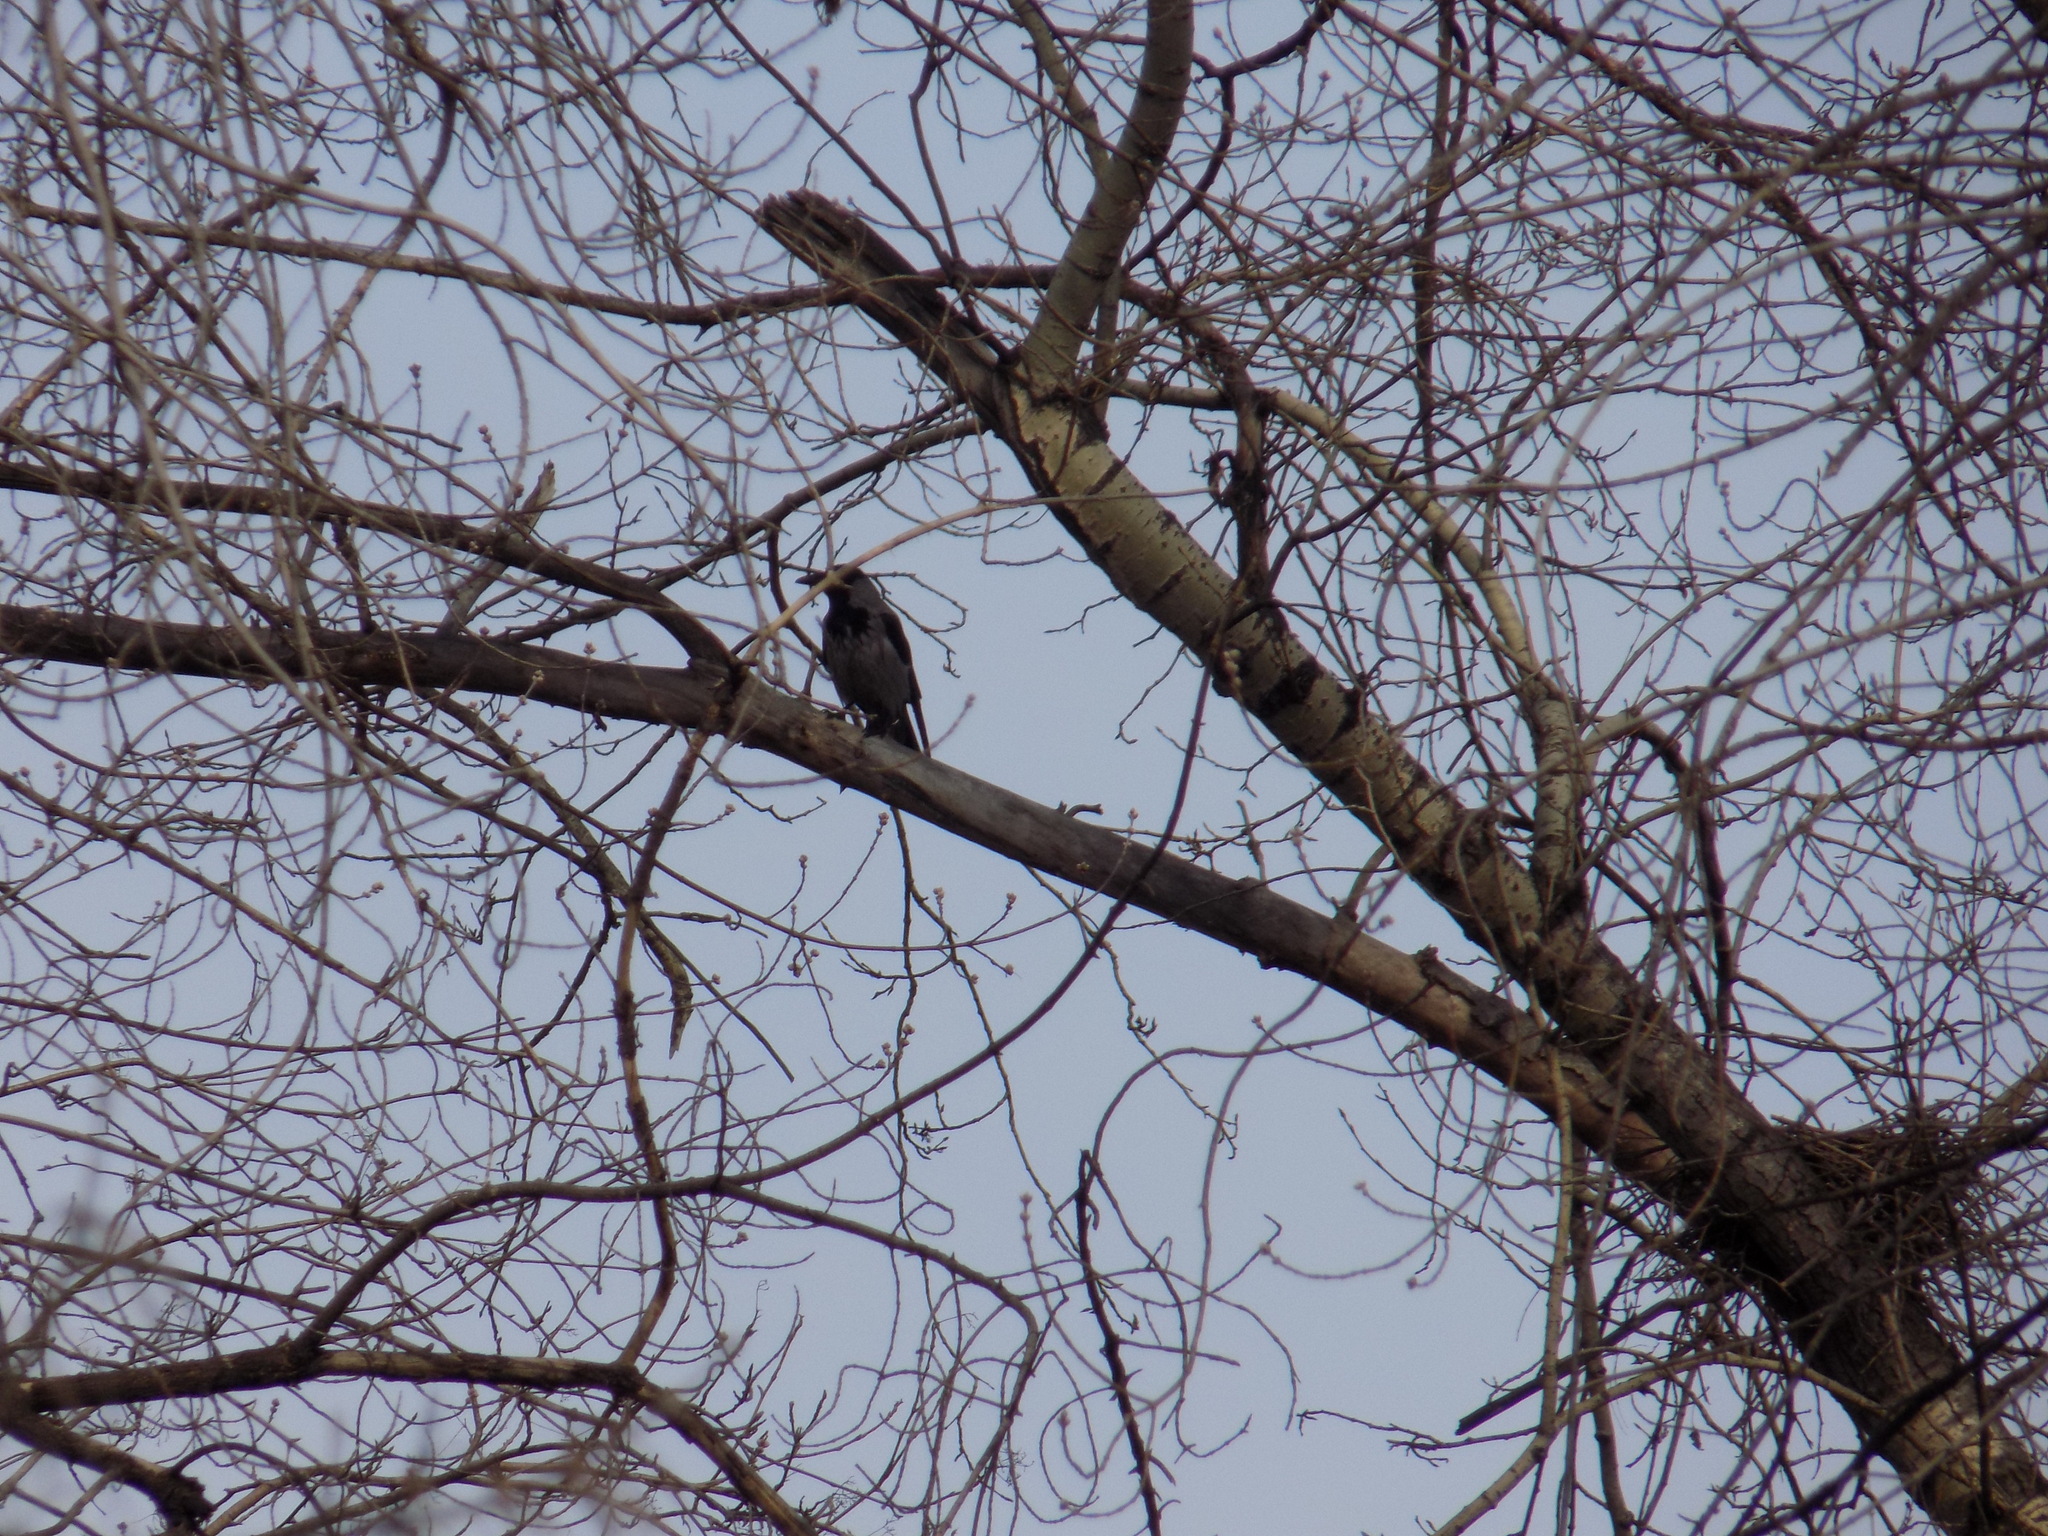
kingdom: Animalia
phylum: Chordata
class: Aves
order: Passeriformes
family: Corvidae
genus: Corvus
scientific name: Corvus cornix
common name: Hooded crow
